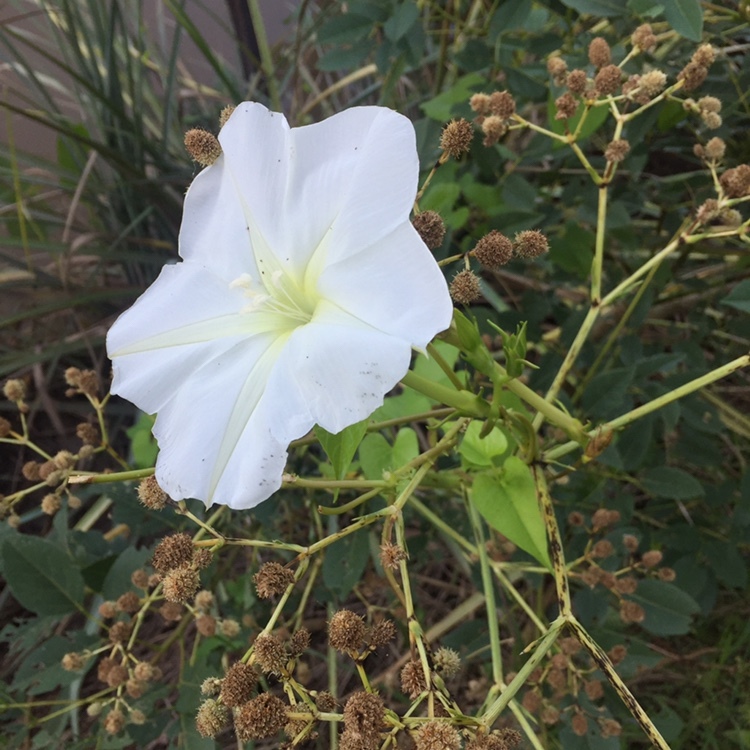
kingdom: Plantae
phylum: Tracheophyta
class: Magnoliopsida
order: Solanales
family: Convolvulaceae
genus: Ipomoea
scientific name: Ipomoea alba
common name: Moonflower
